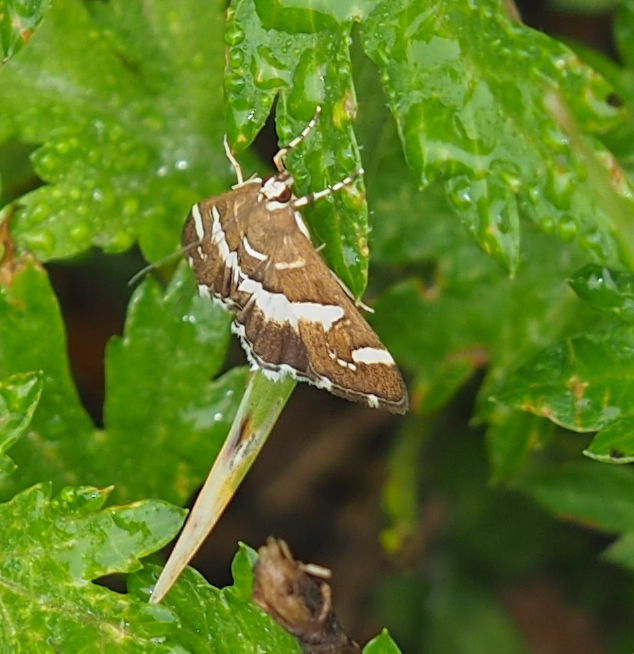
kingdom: Animalia
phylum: Arthropoda
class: Insecta
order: Lepidoptera
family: Crambidae
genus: Spoladea
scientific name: Spoladea recurvalis
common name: Beet webworm moth
